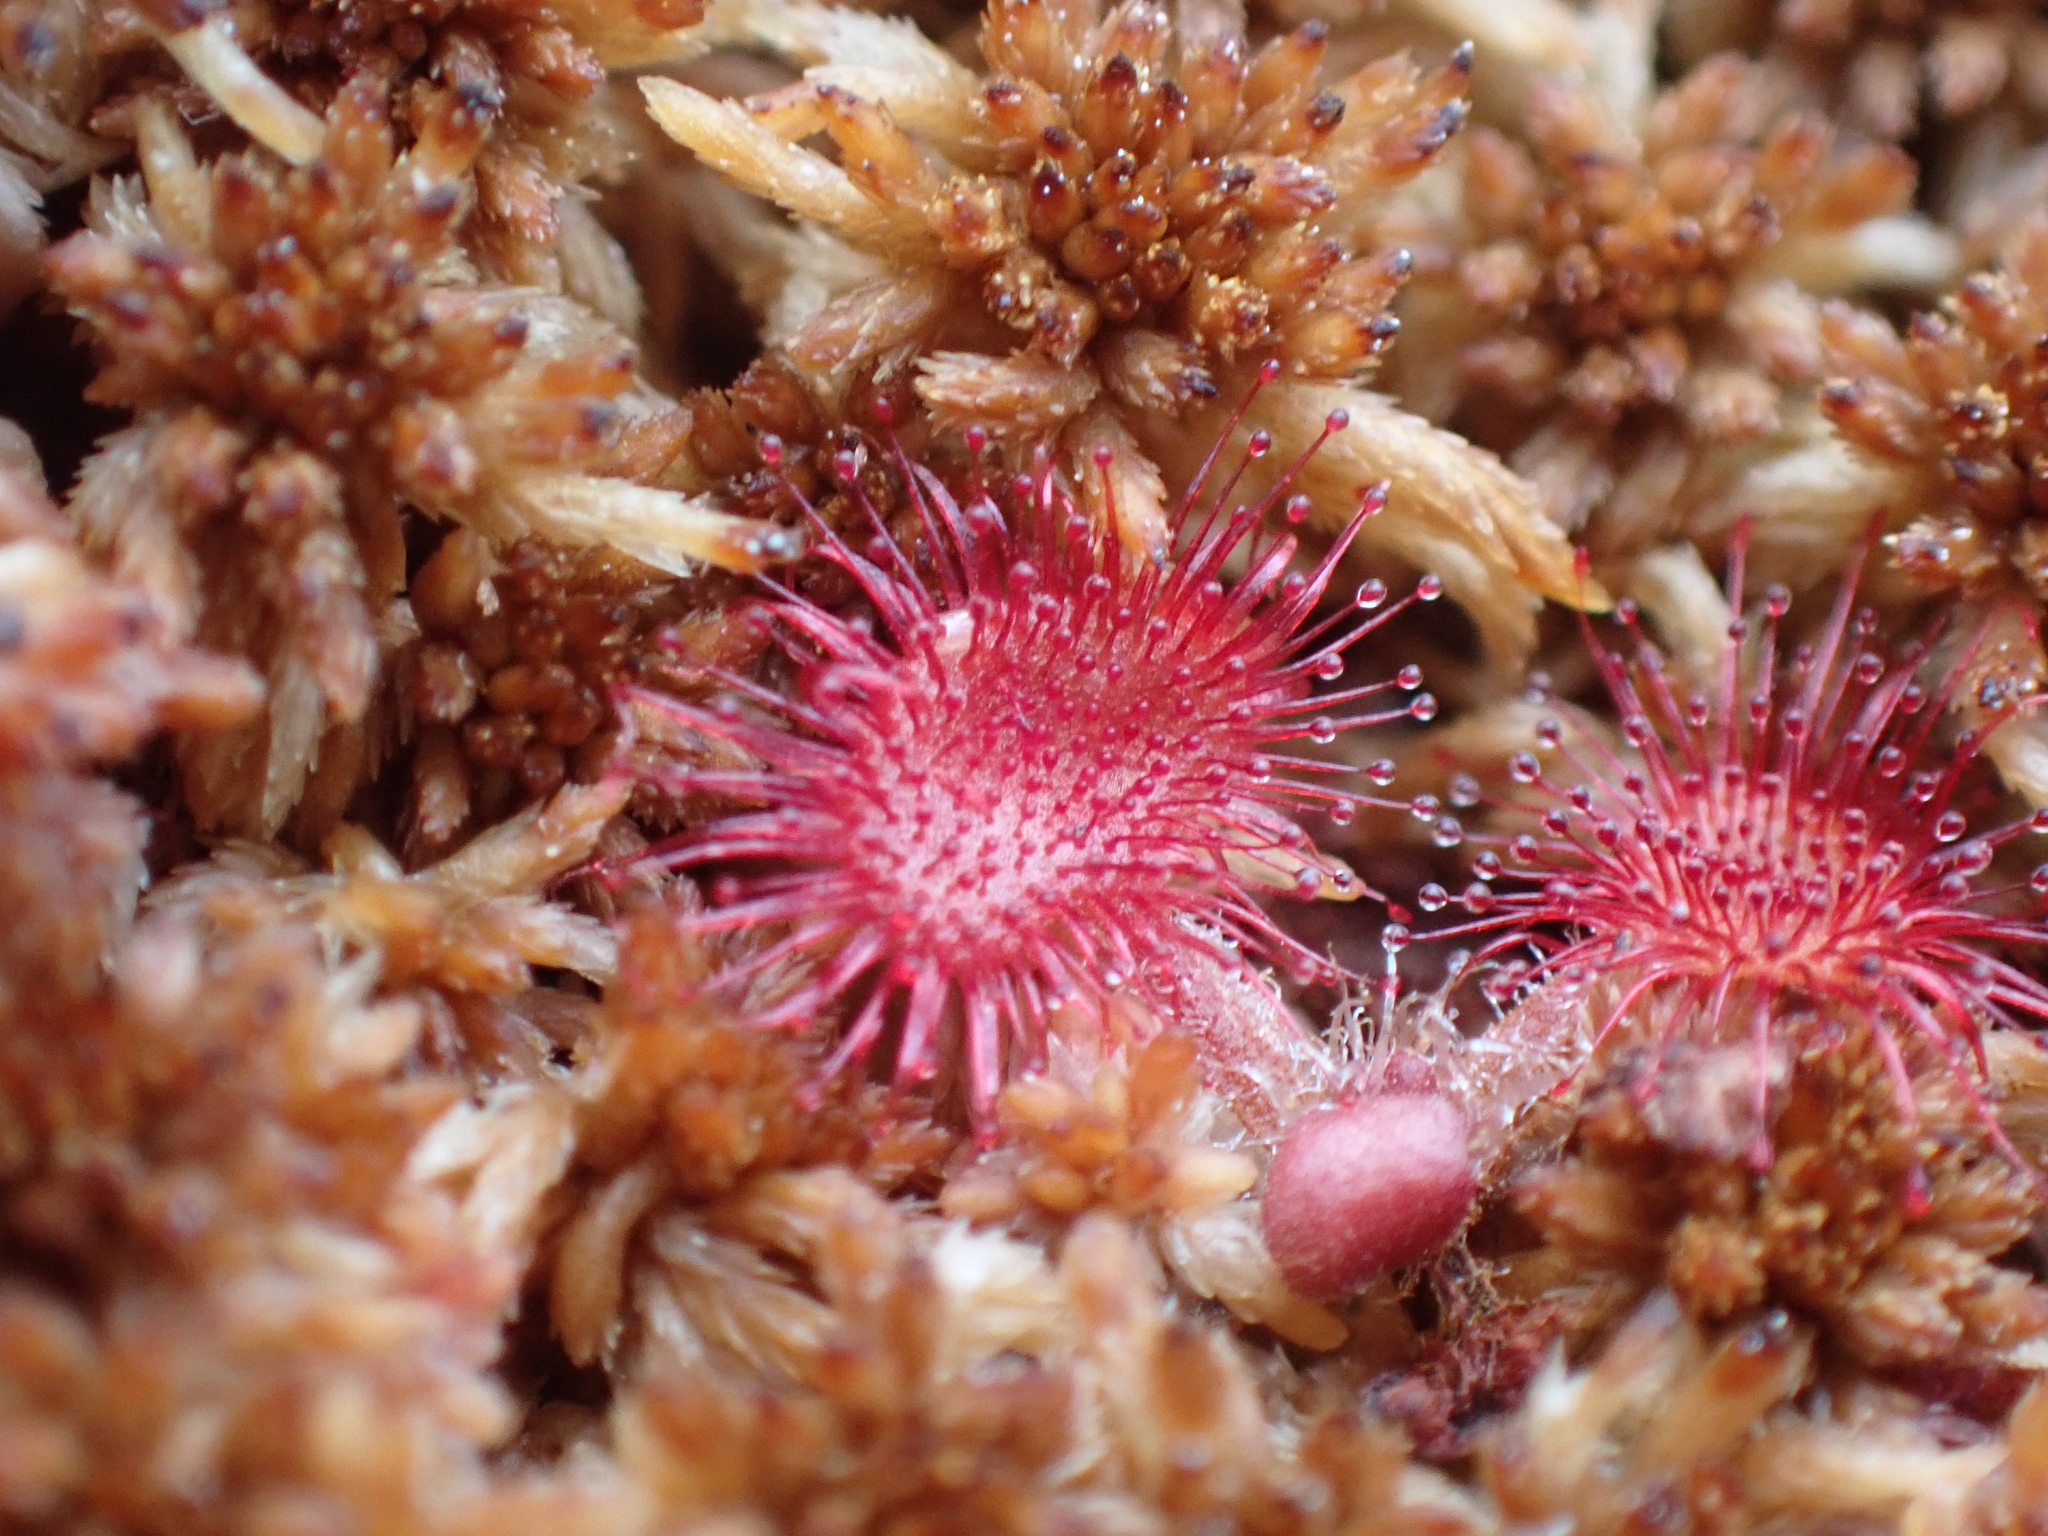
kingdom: Plantae
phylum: Tracheophyta
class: Magnoliopsida
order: Caryophyllales
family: Droseraceae
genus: Drosera
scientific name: Drosera rotundifolia
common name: Round-leaved sundew
